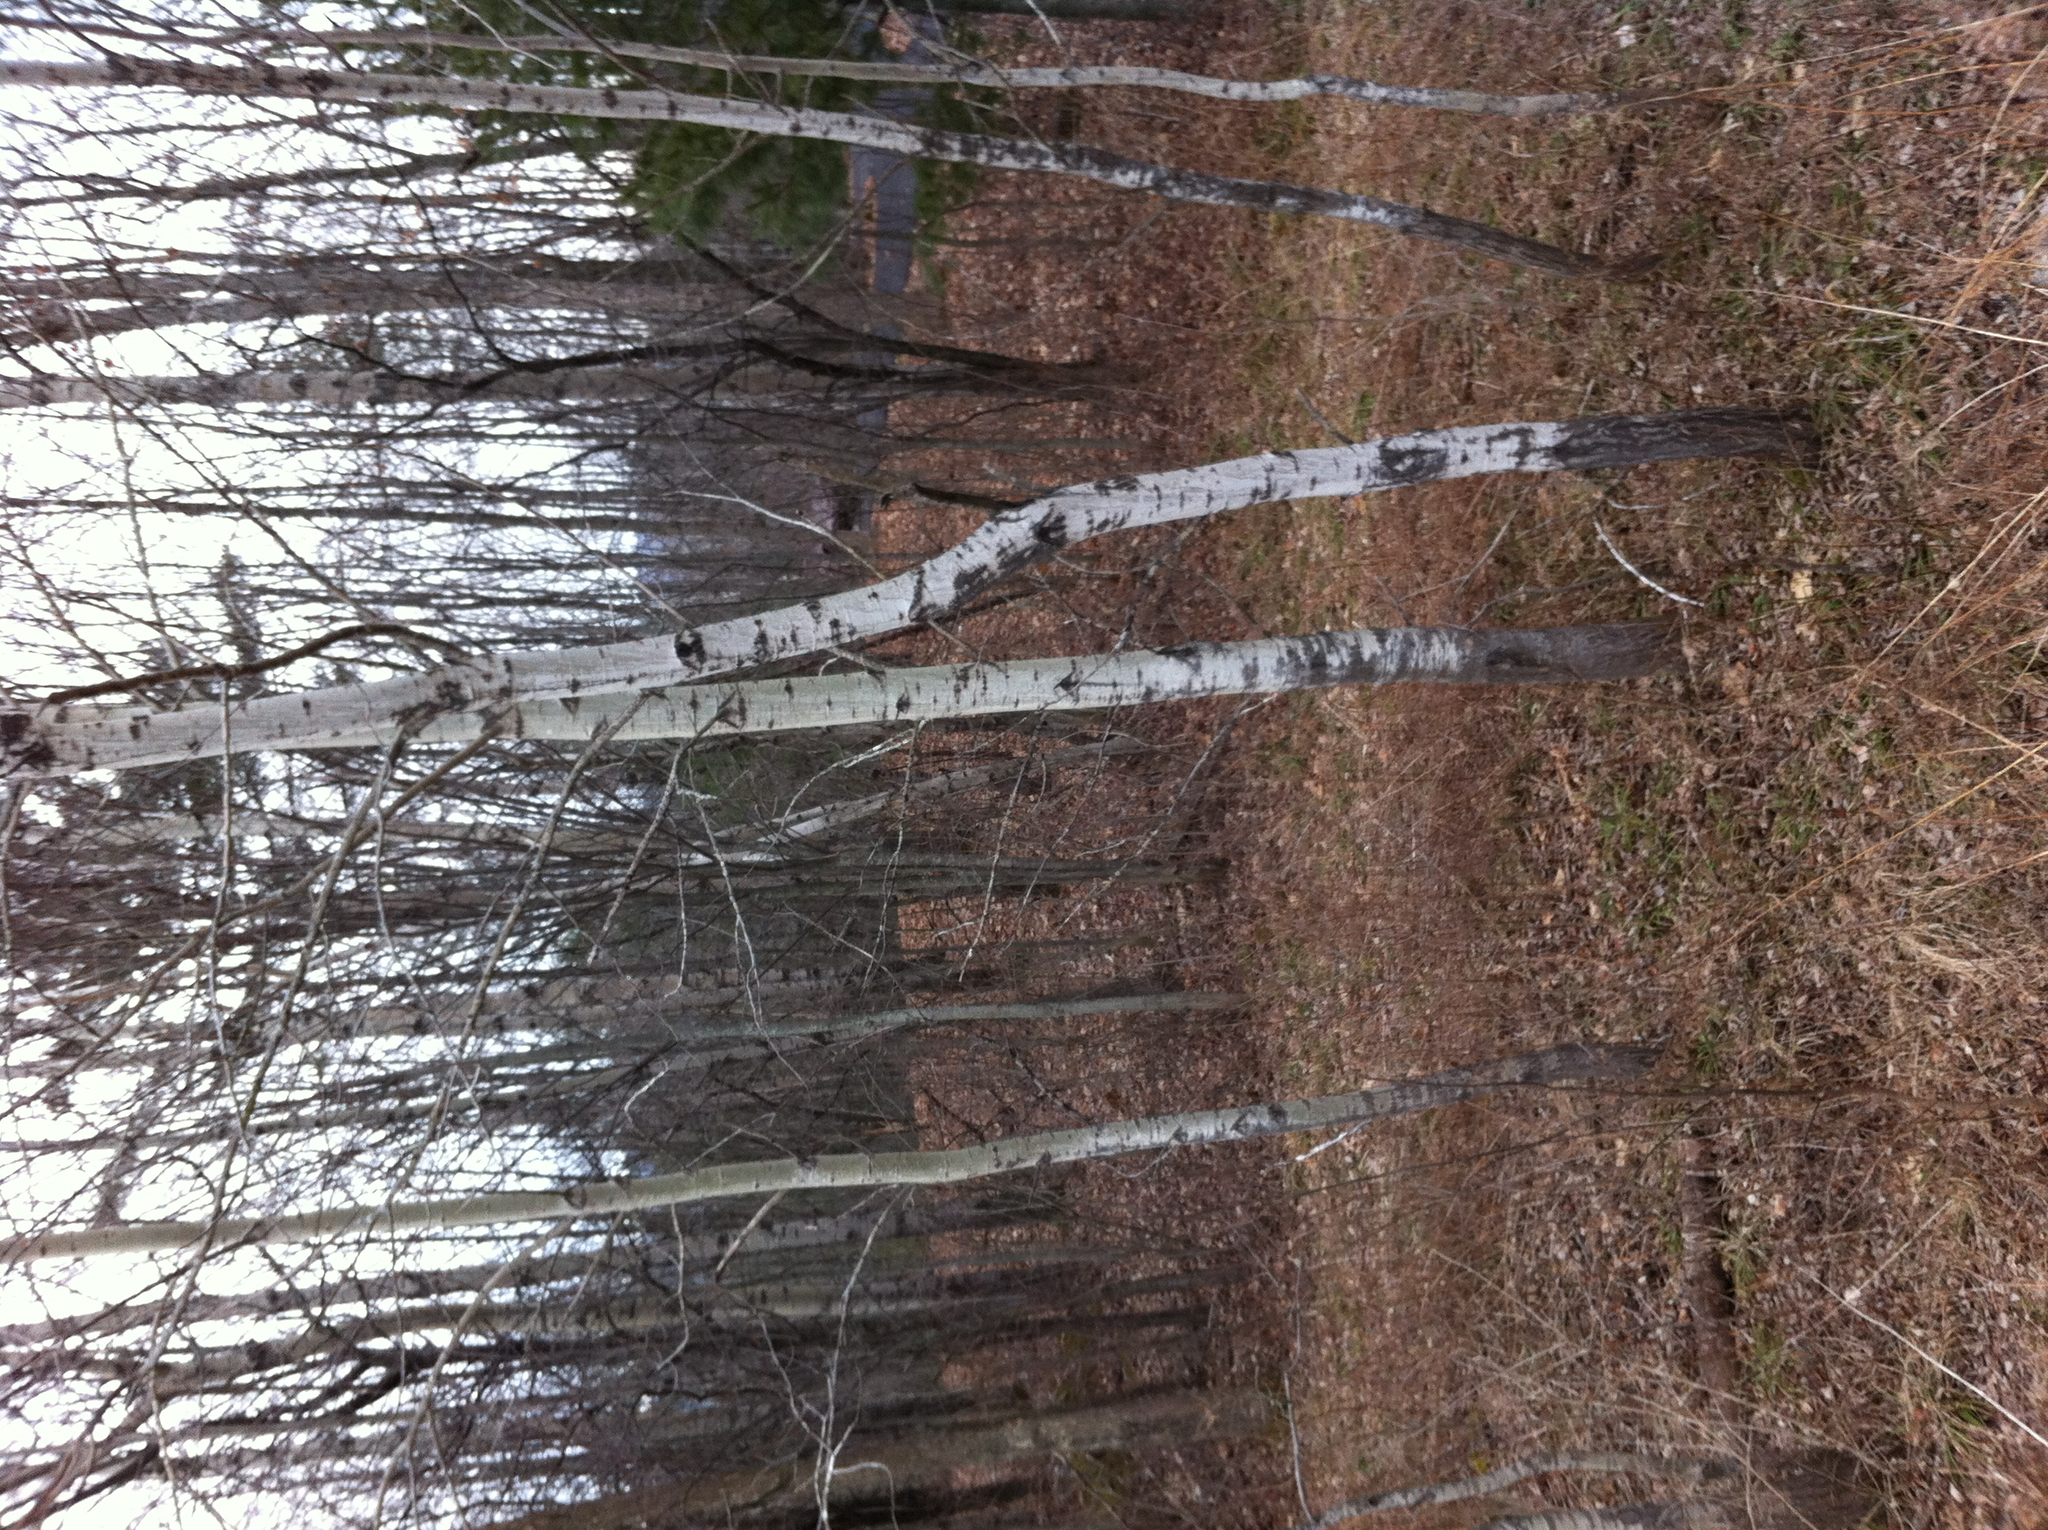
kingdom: Plantae
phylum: Tracheophyta
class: Magnoliopsida
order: Malpighiales
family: Salicaceae
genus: Populus
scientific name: Populus tremuloides
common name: Quaking aspen
